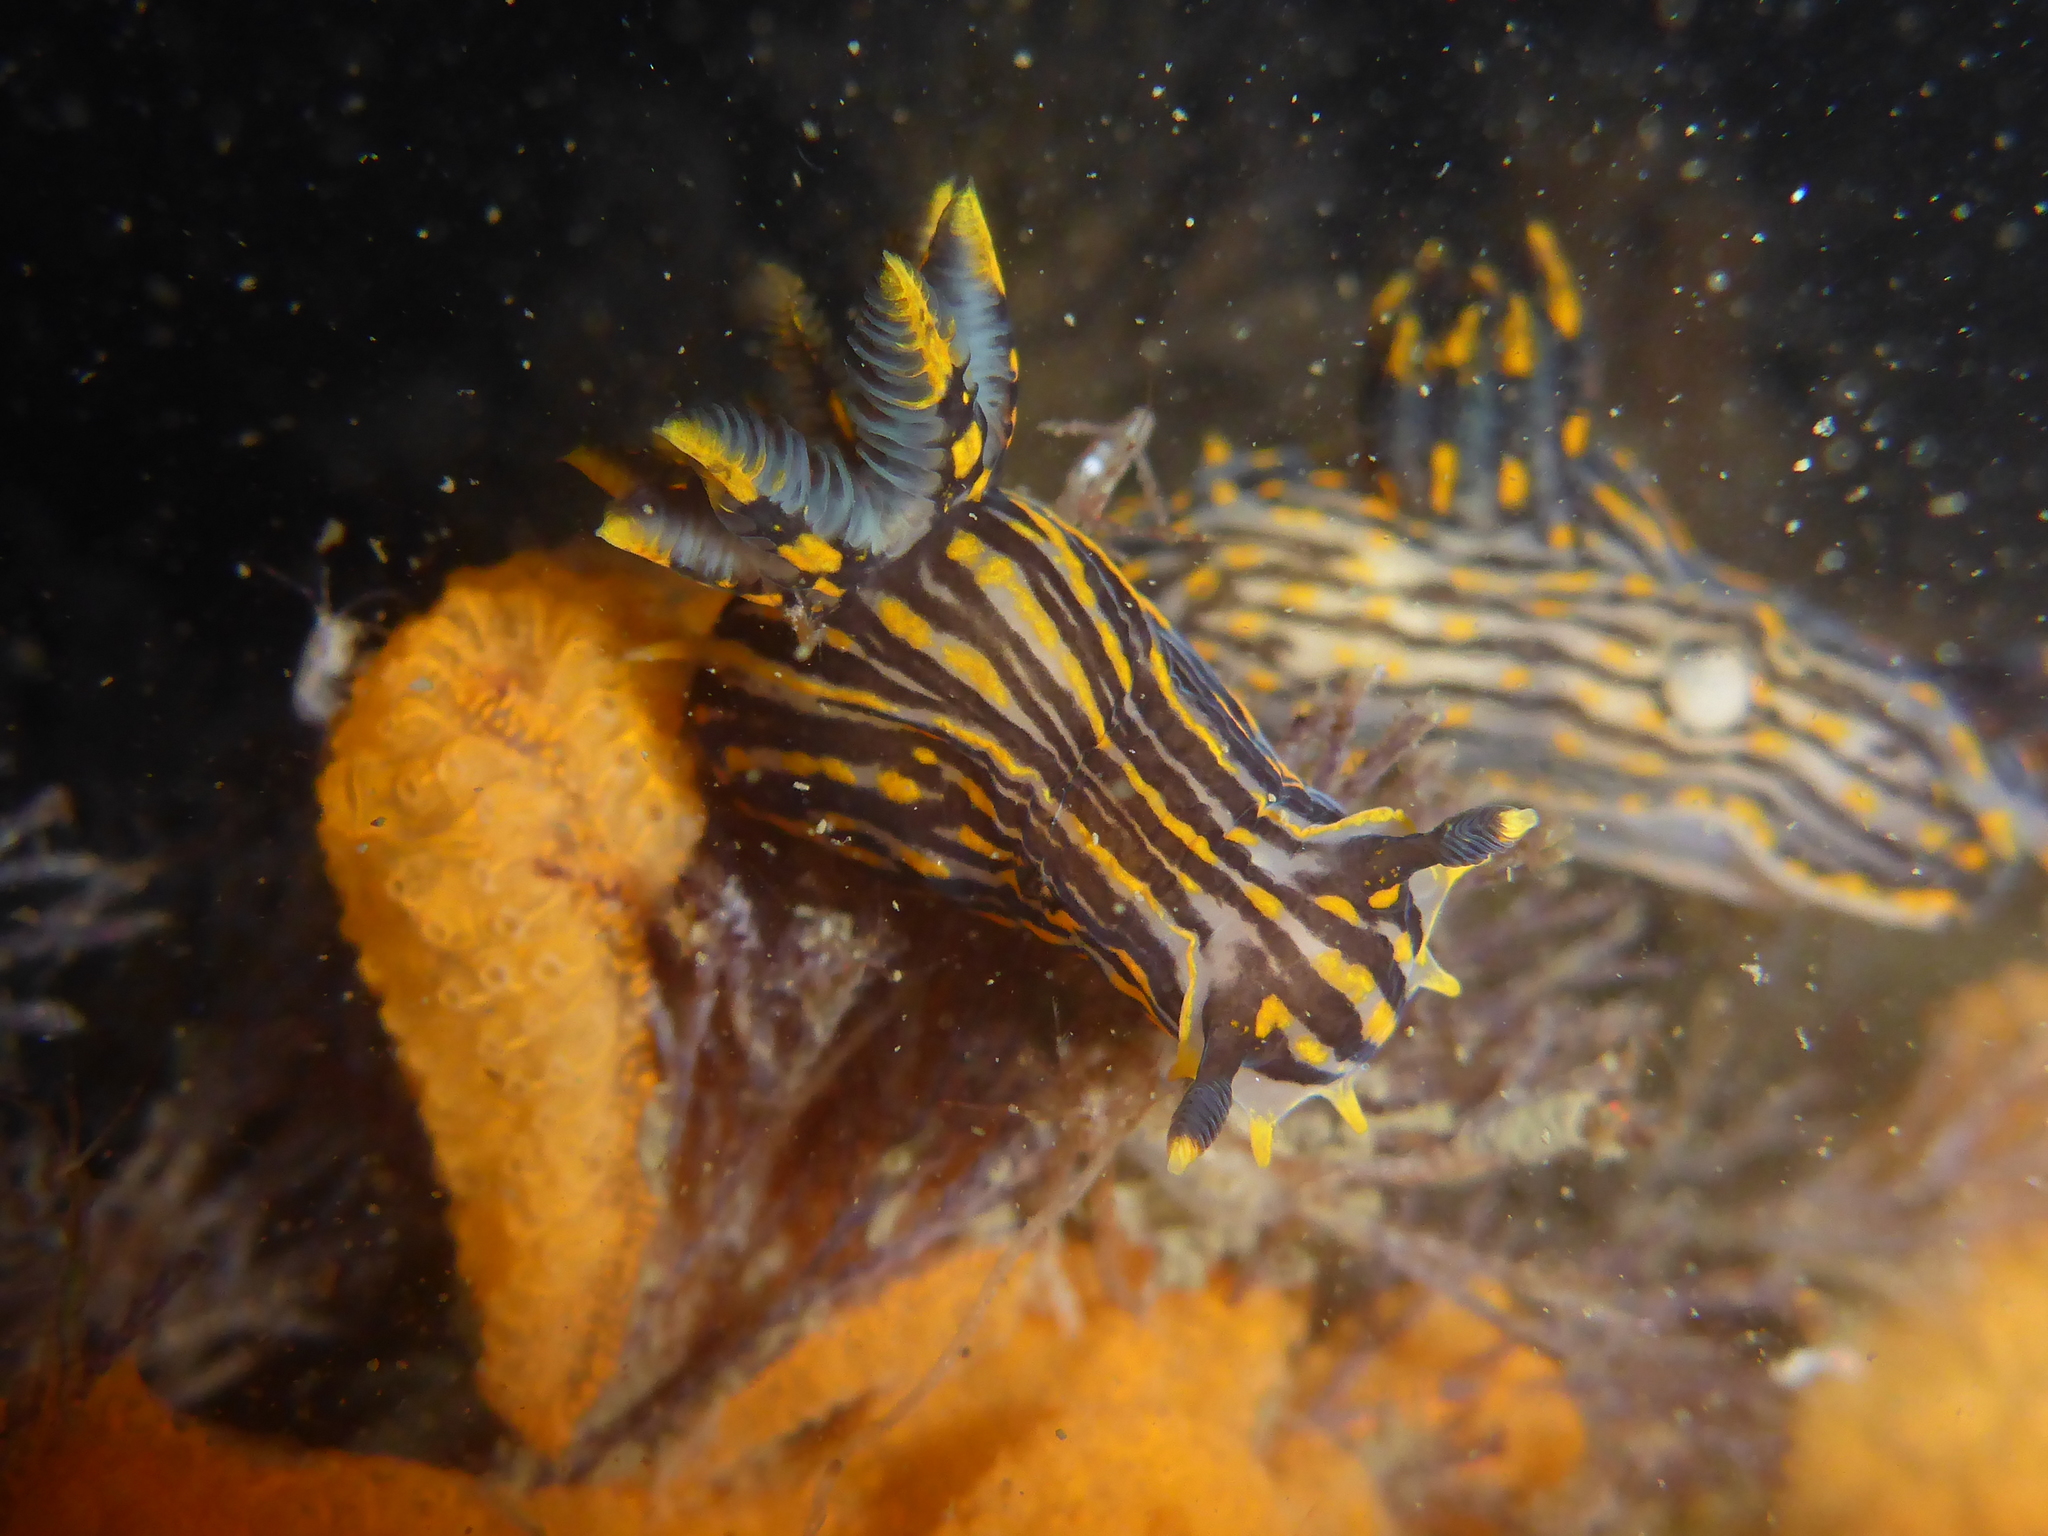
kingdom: Animalia
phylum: Mollusca
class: Gastropoda
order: Nudibranchia
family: Polyceridae
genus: Polycera
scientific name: Polycera atra
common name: Orange-spike polycera
